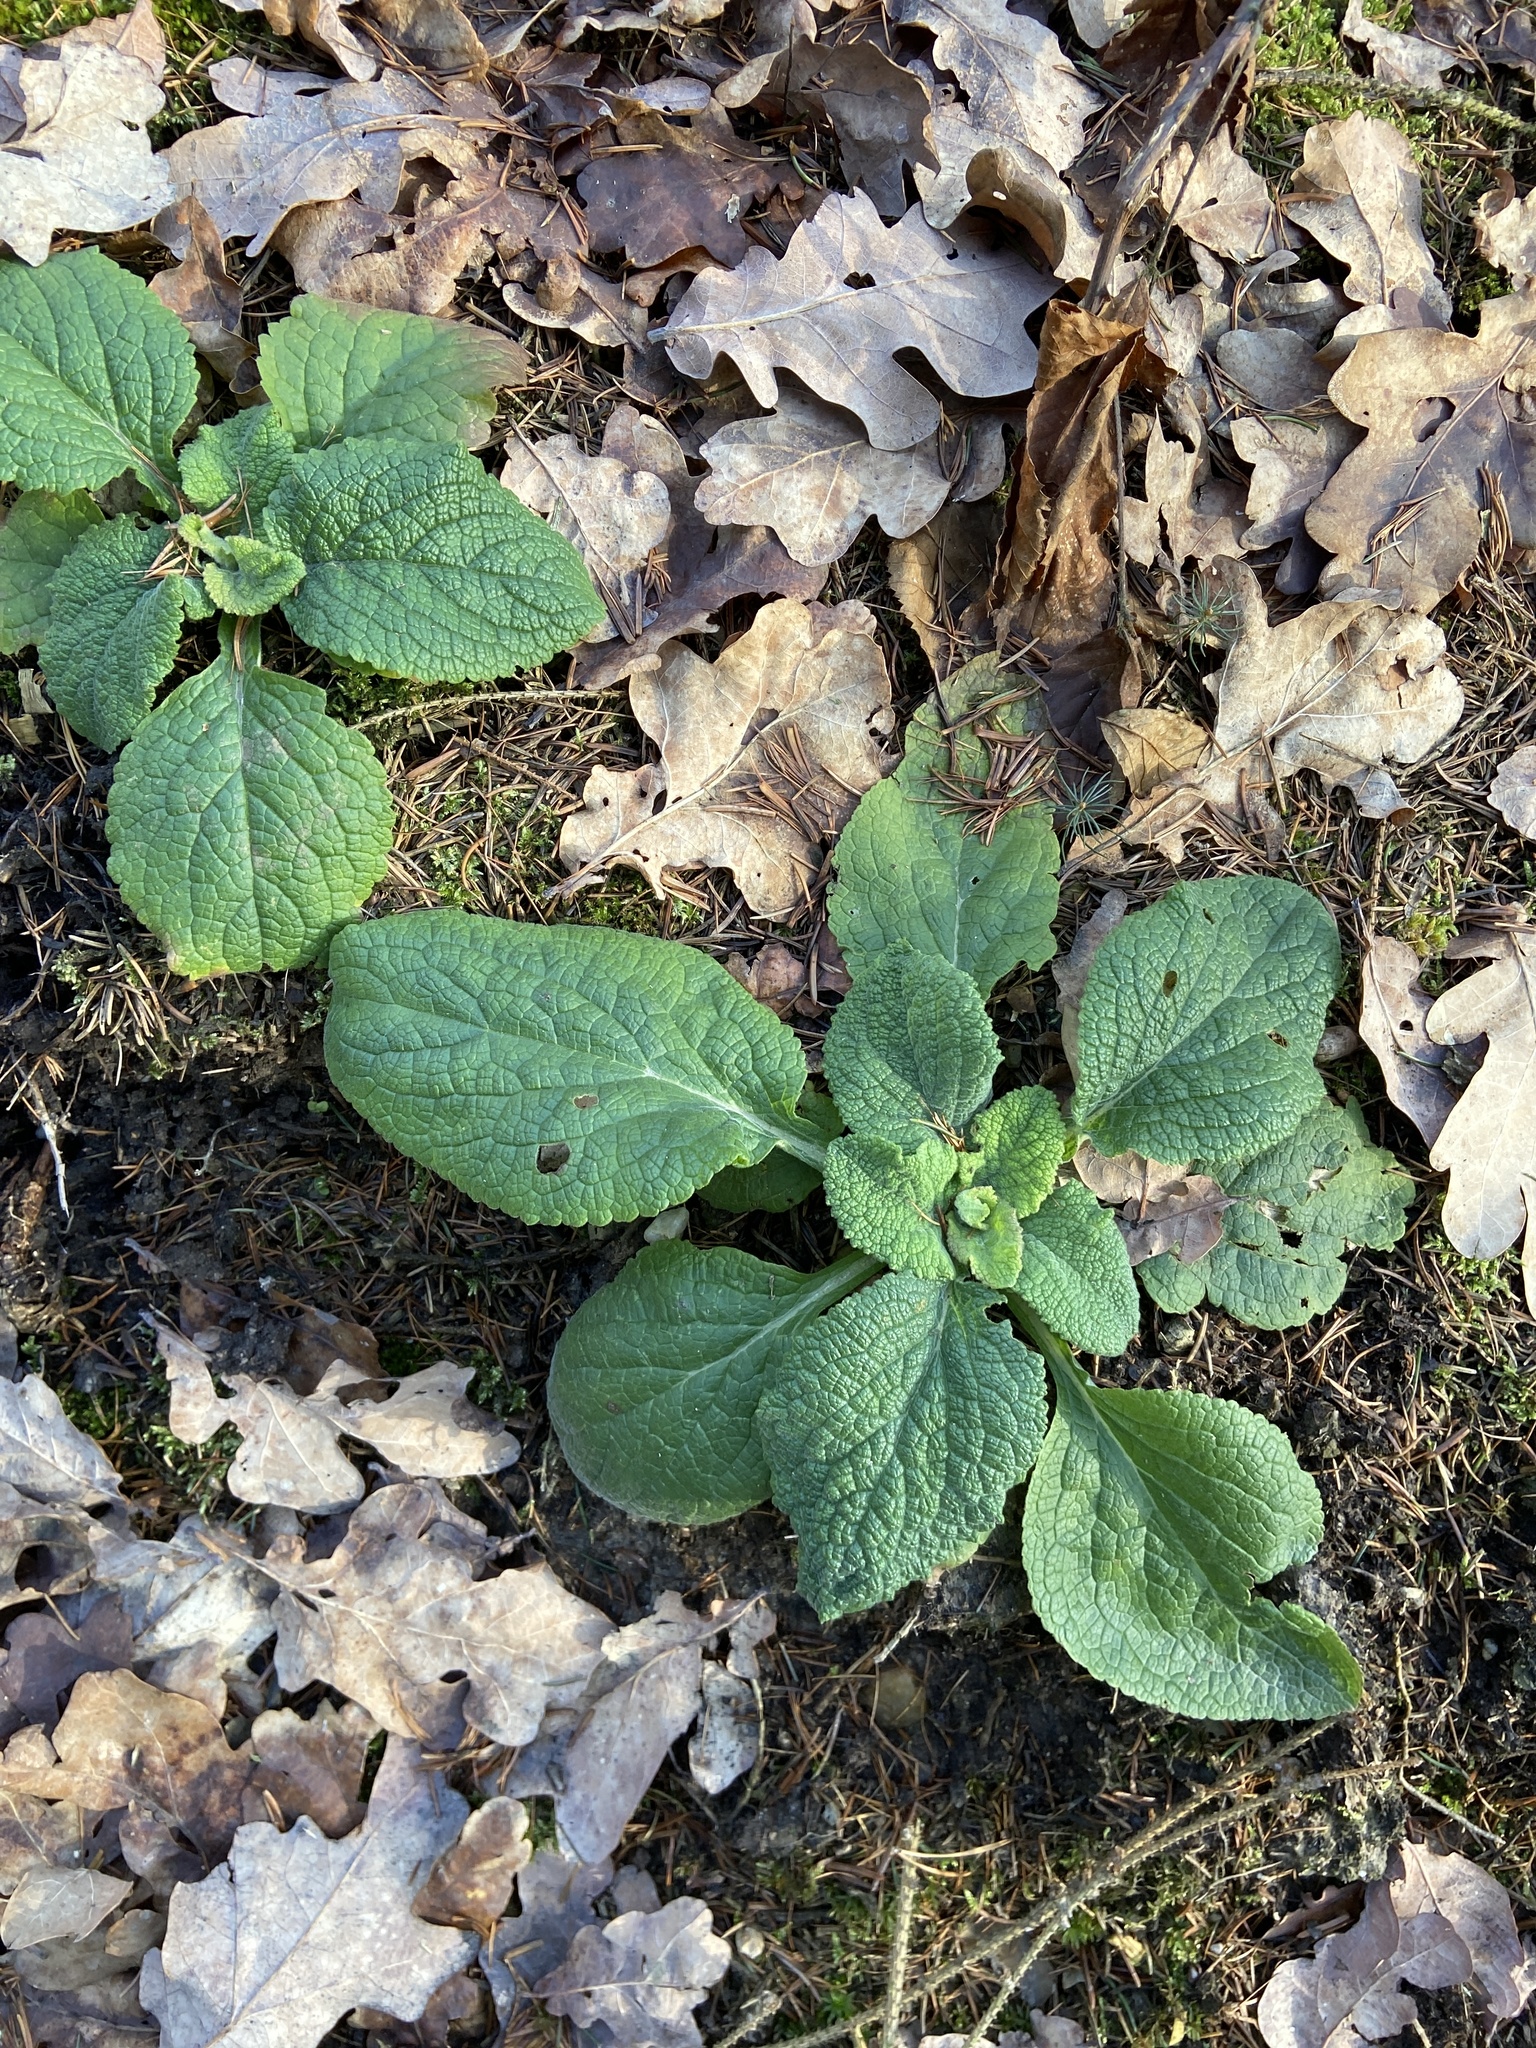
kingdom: Plantae
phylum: Tracheophyta
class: Magnoliopsida
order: Lamiales
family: Plantaginaceae
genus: Digitalis
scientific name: Digitalis purpurea
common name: Foxglove
